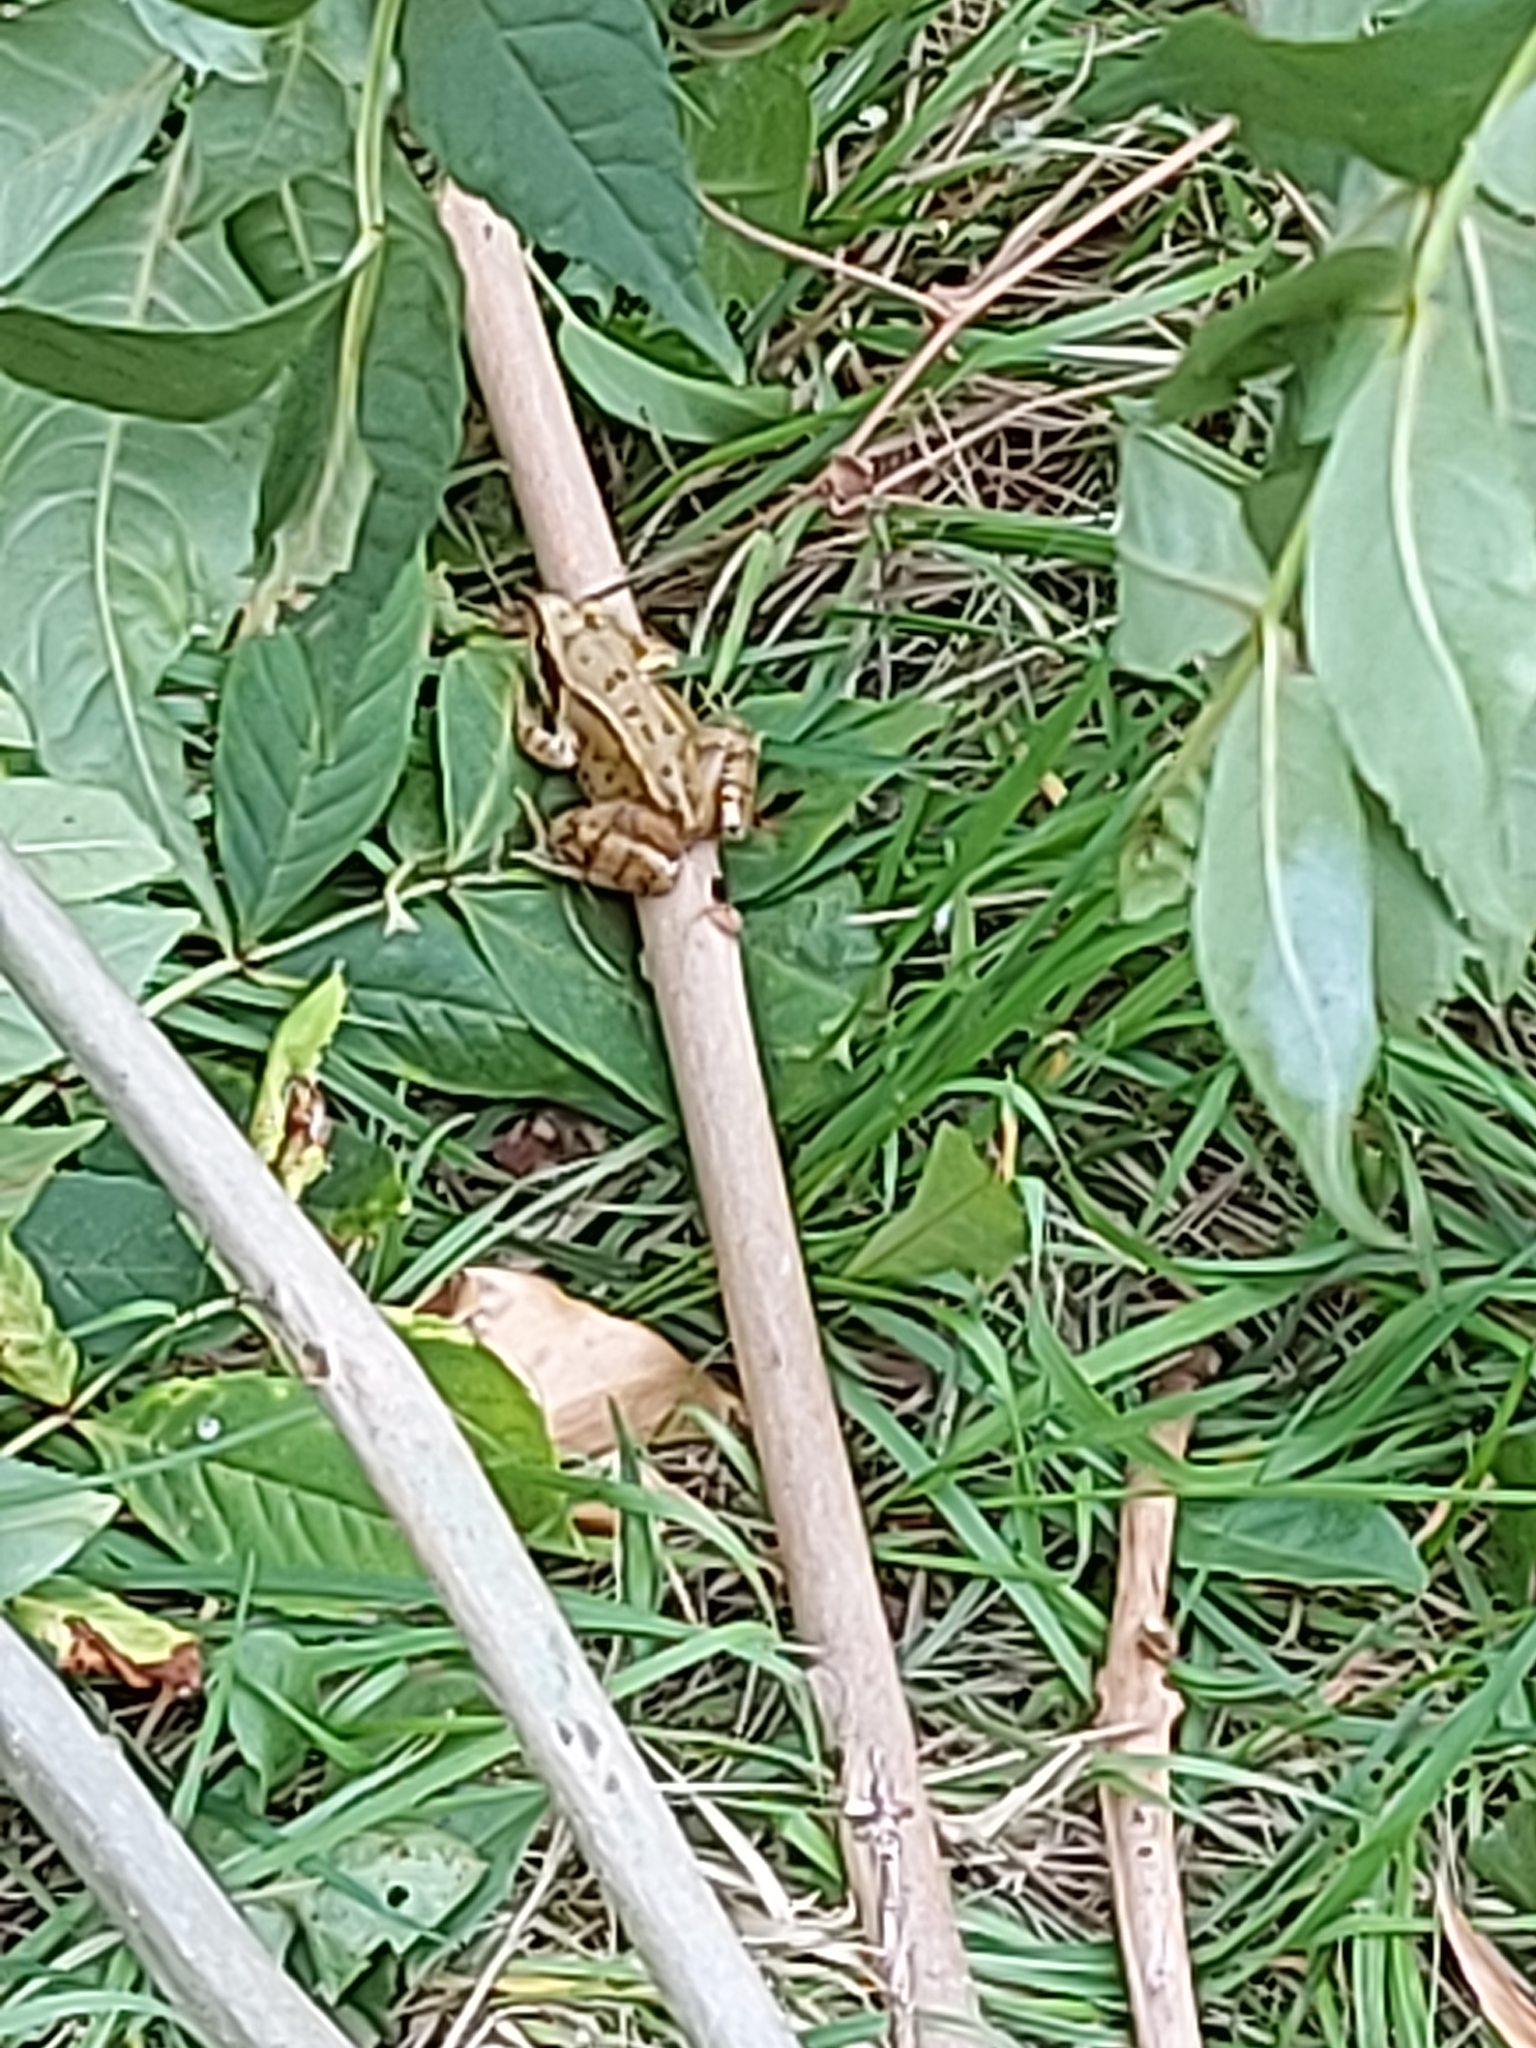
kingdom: Animalia
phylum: Chordata
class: Amphibia
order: Anura
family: Ranidae
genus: Rana
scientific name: Rana temporaria
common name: Common frog
